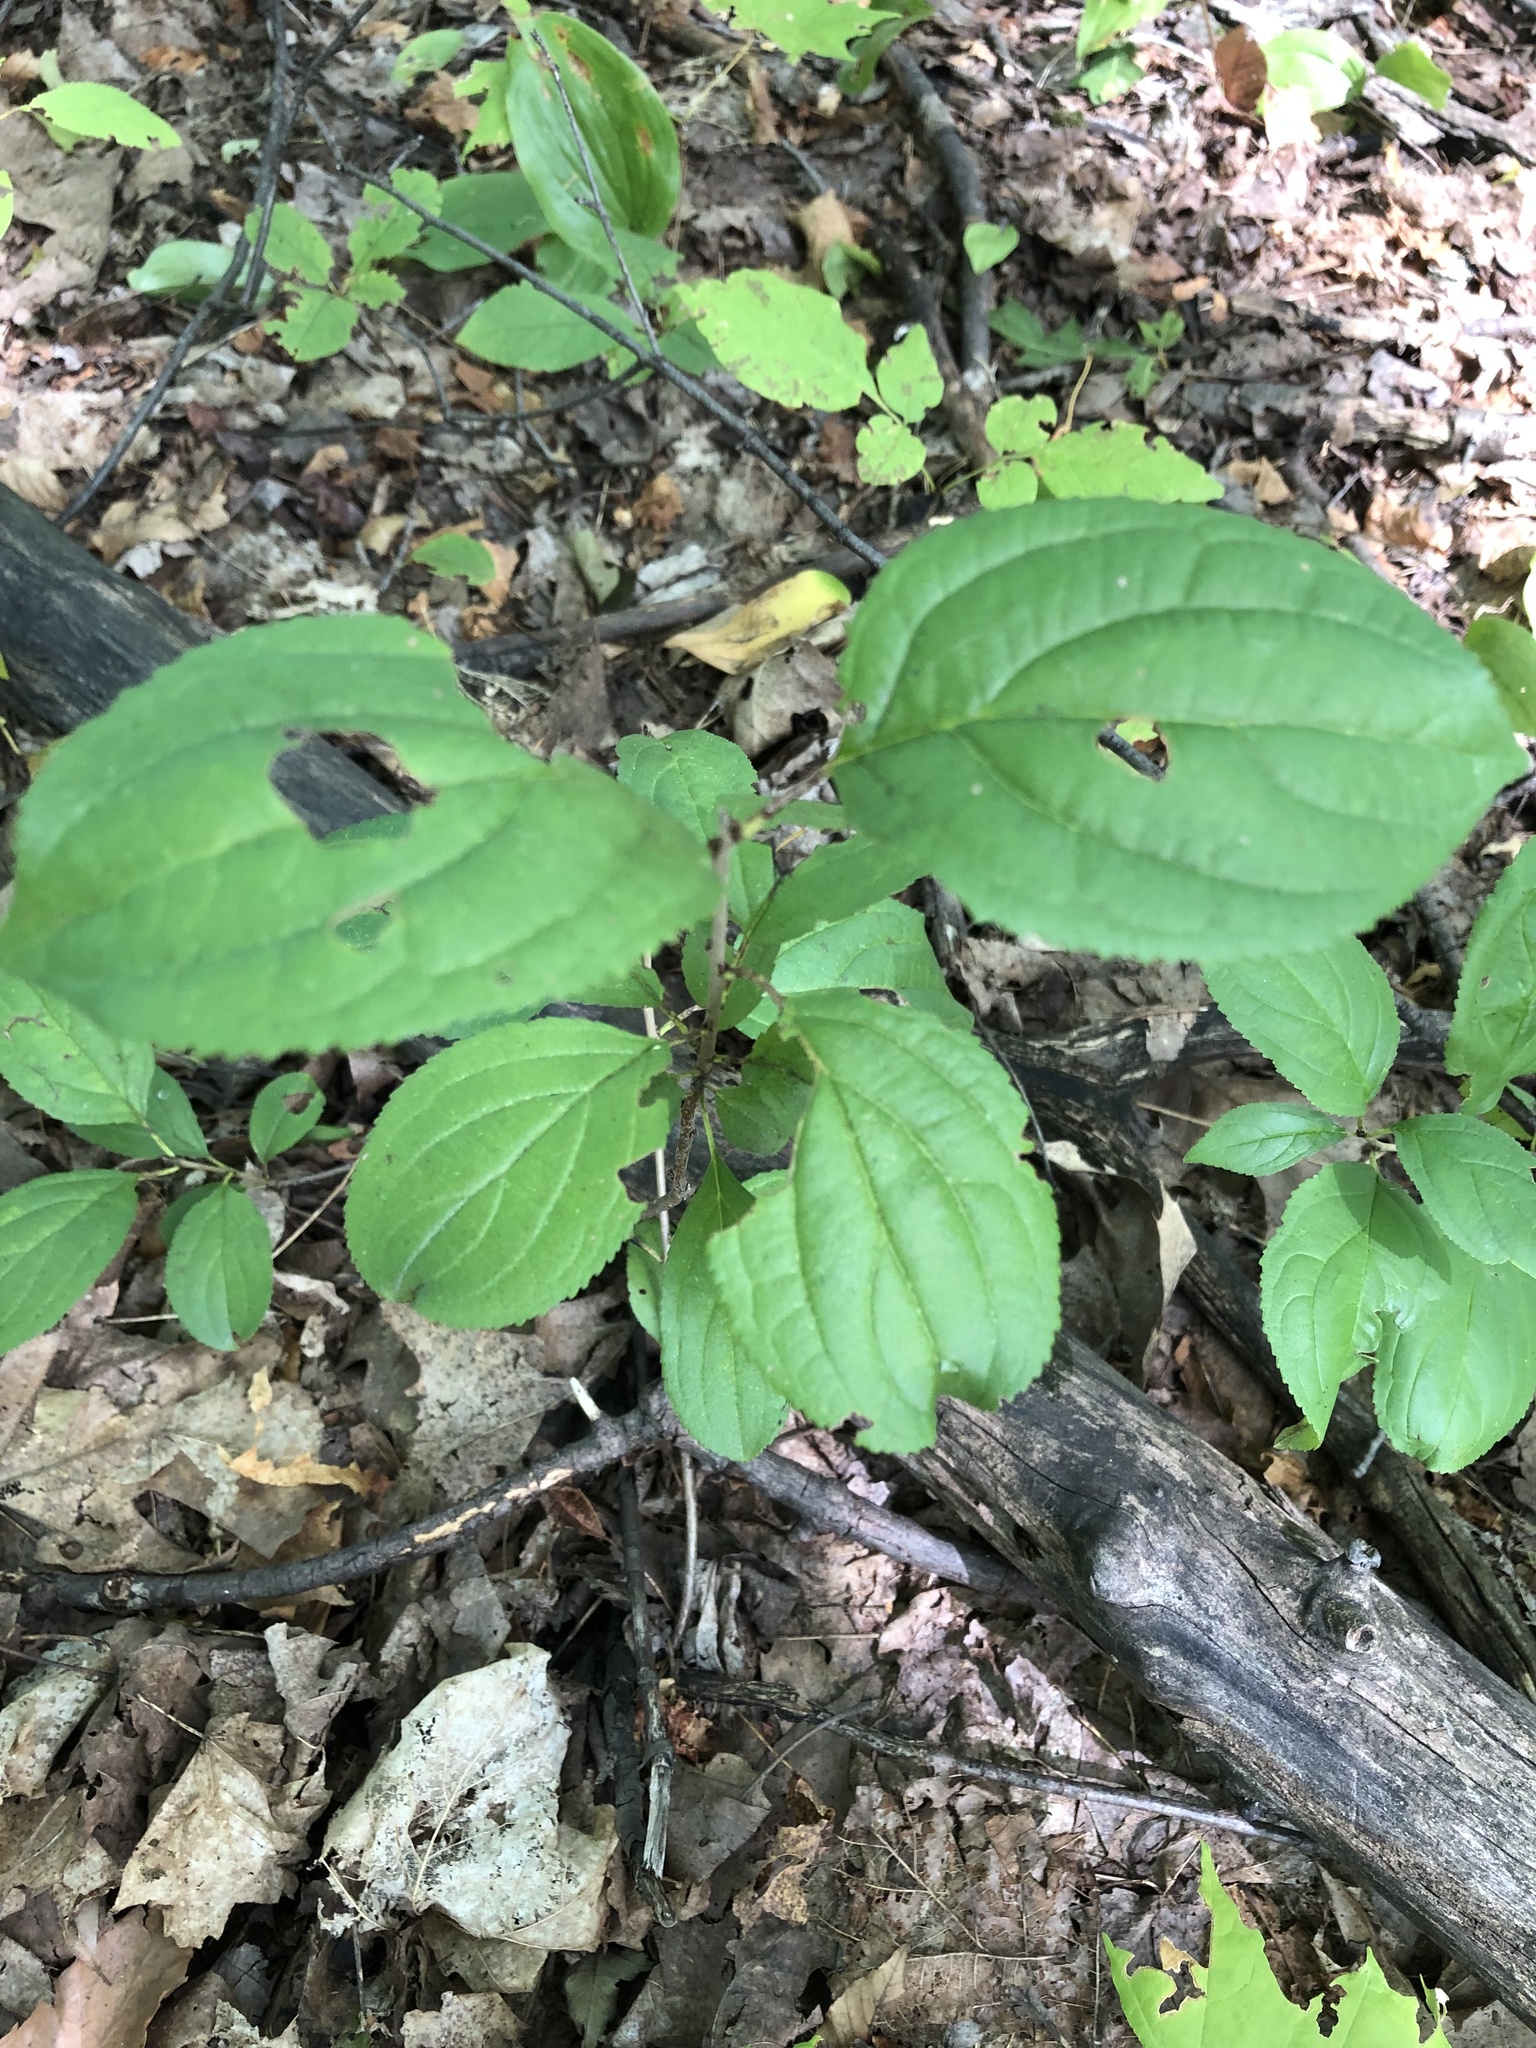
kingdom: Plantae
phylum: Tracheophyta
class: Magnoliopsida
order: Rosales
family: Rhamnaceae
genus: Rhamnus
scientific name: Rhamnus cathartica
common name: Common buckthorn
